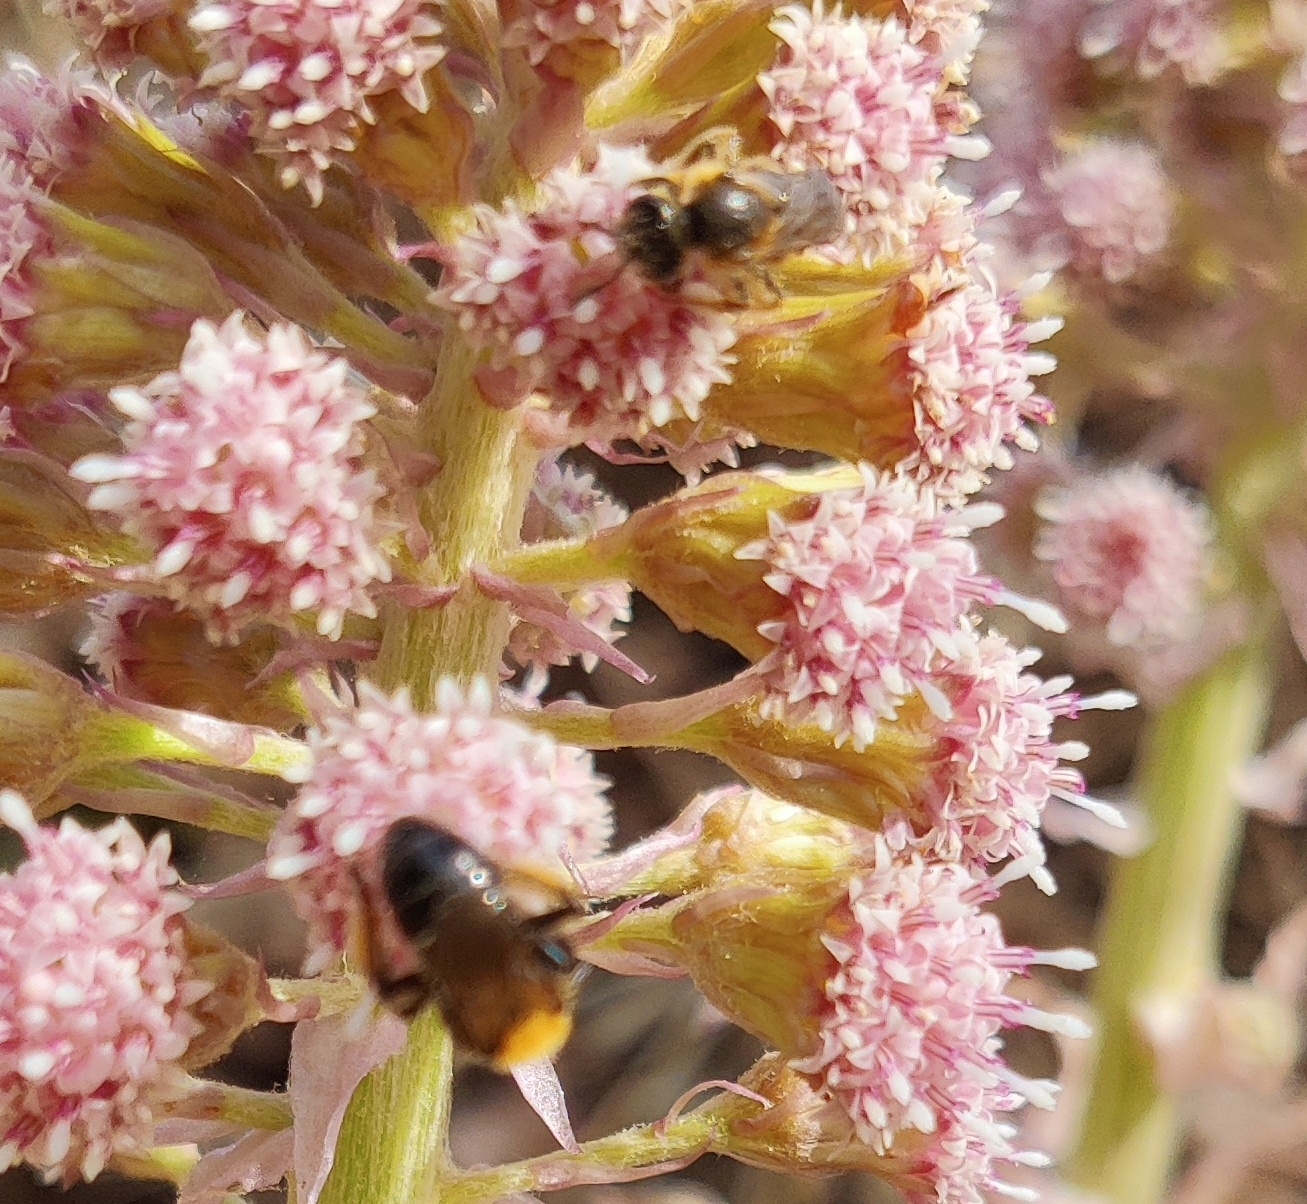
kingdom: Animalia
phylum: Arthropoda
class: Insecta
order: Hymenoptera
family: Andrenidae
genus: Andrena
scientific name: Andrena clarkella
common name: Clarke's mining bee
